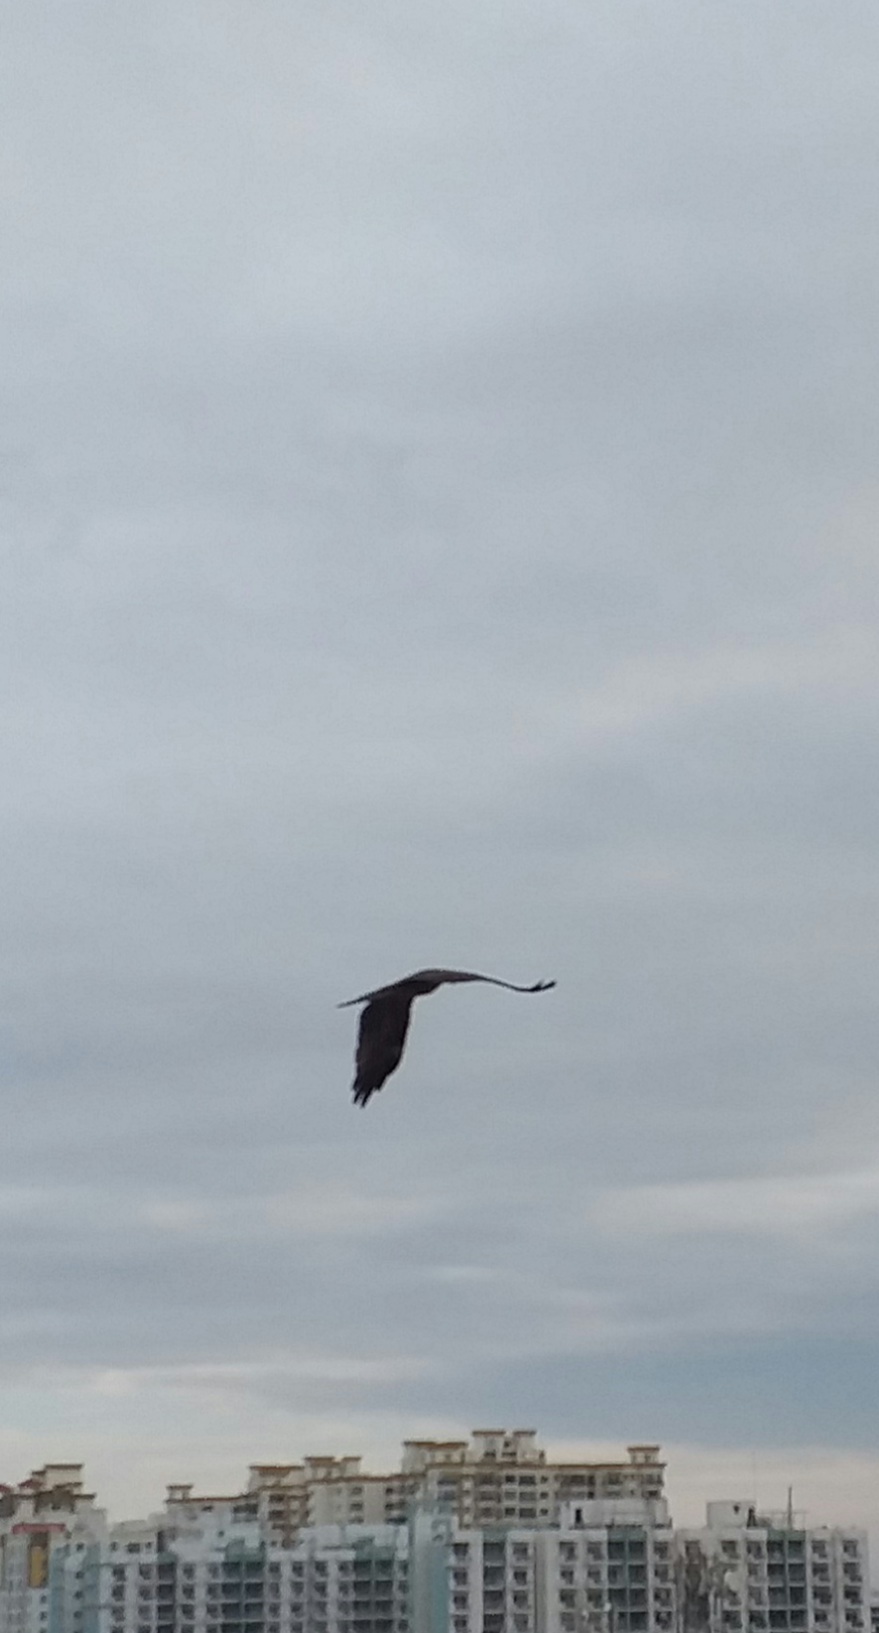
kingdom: Animalia
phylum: Chordata
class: Aves
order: Accipitriformes
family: Accipitridae
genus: Milvus
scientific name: Milvus migrans
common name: Black kite
